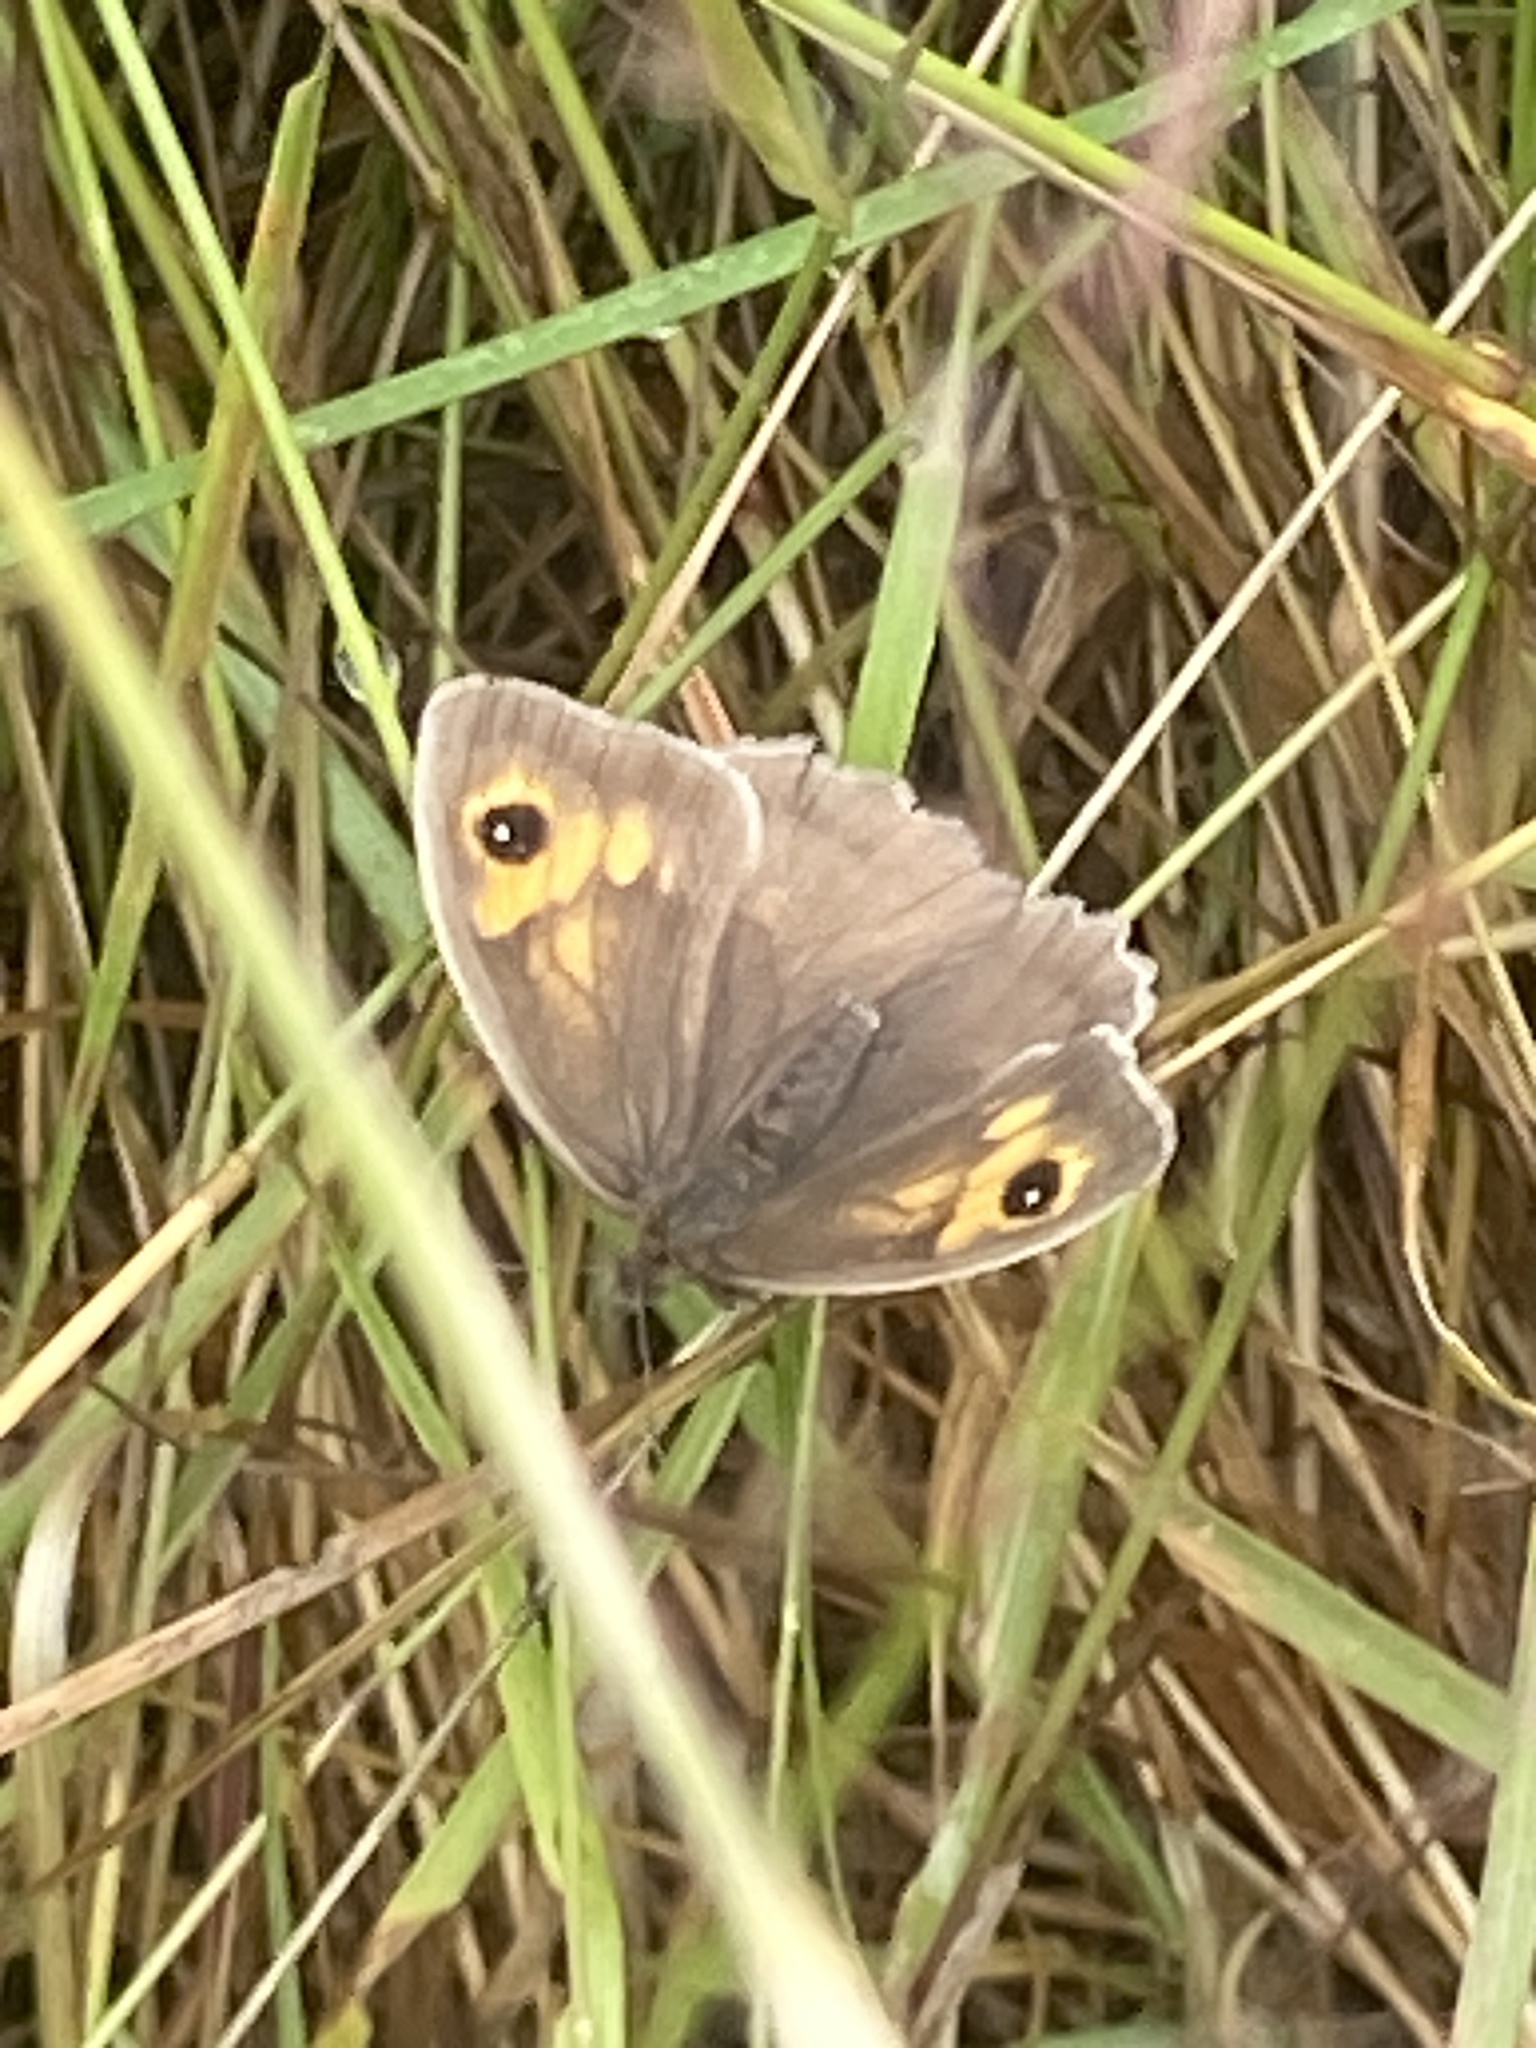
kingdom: Animalia
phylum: Arthropoda
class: Insecta
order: Lepidoptera
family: Nymphalidae
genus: Maniola
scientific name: Maniola jurtina
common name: Meadow brown
